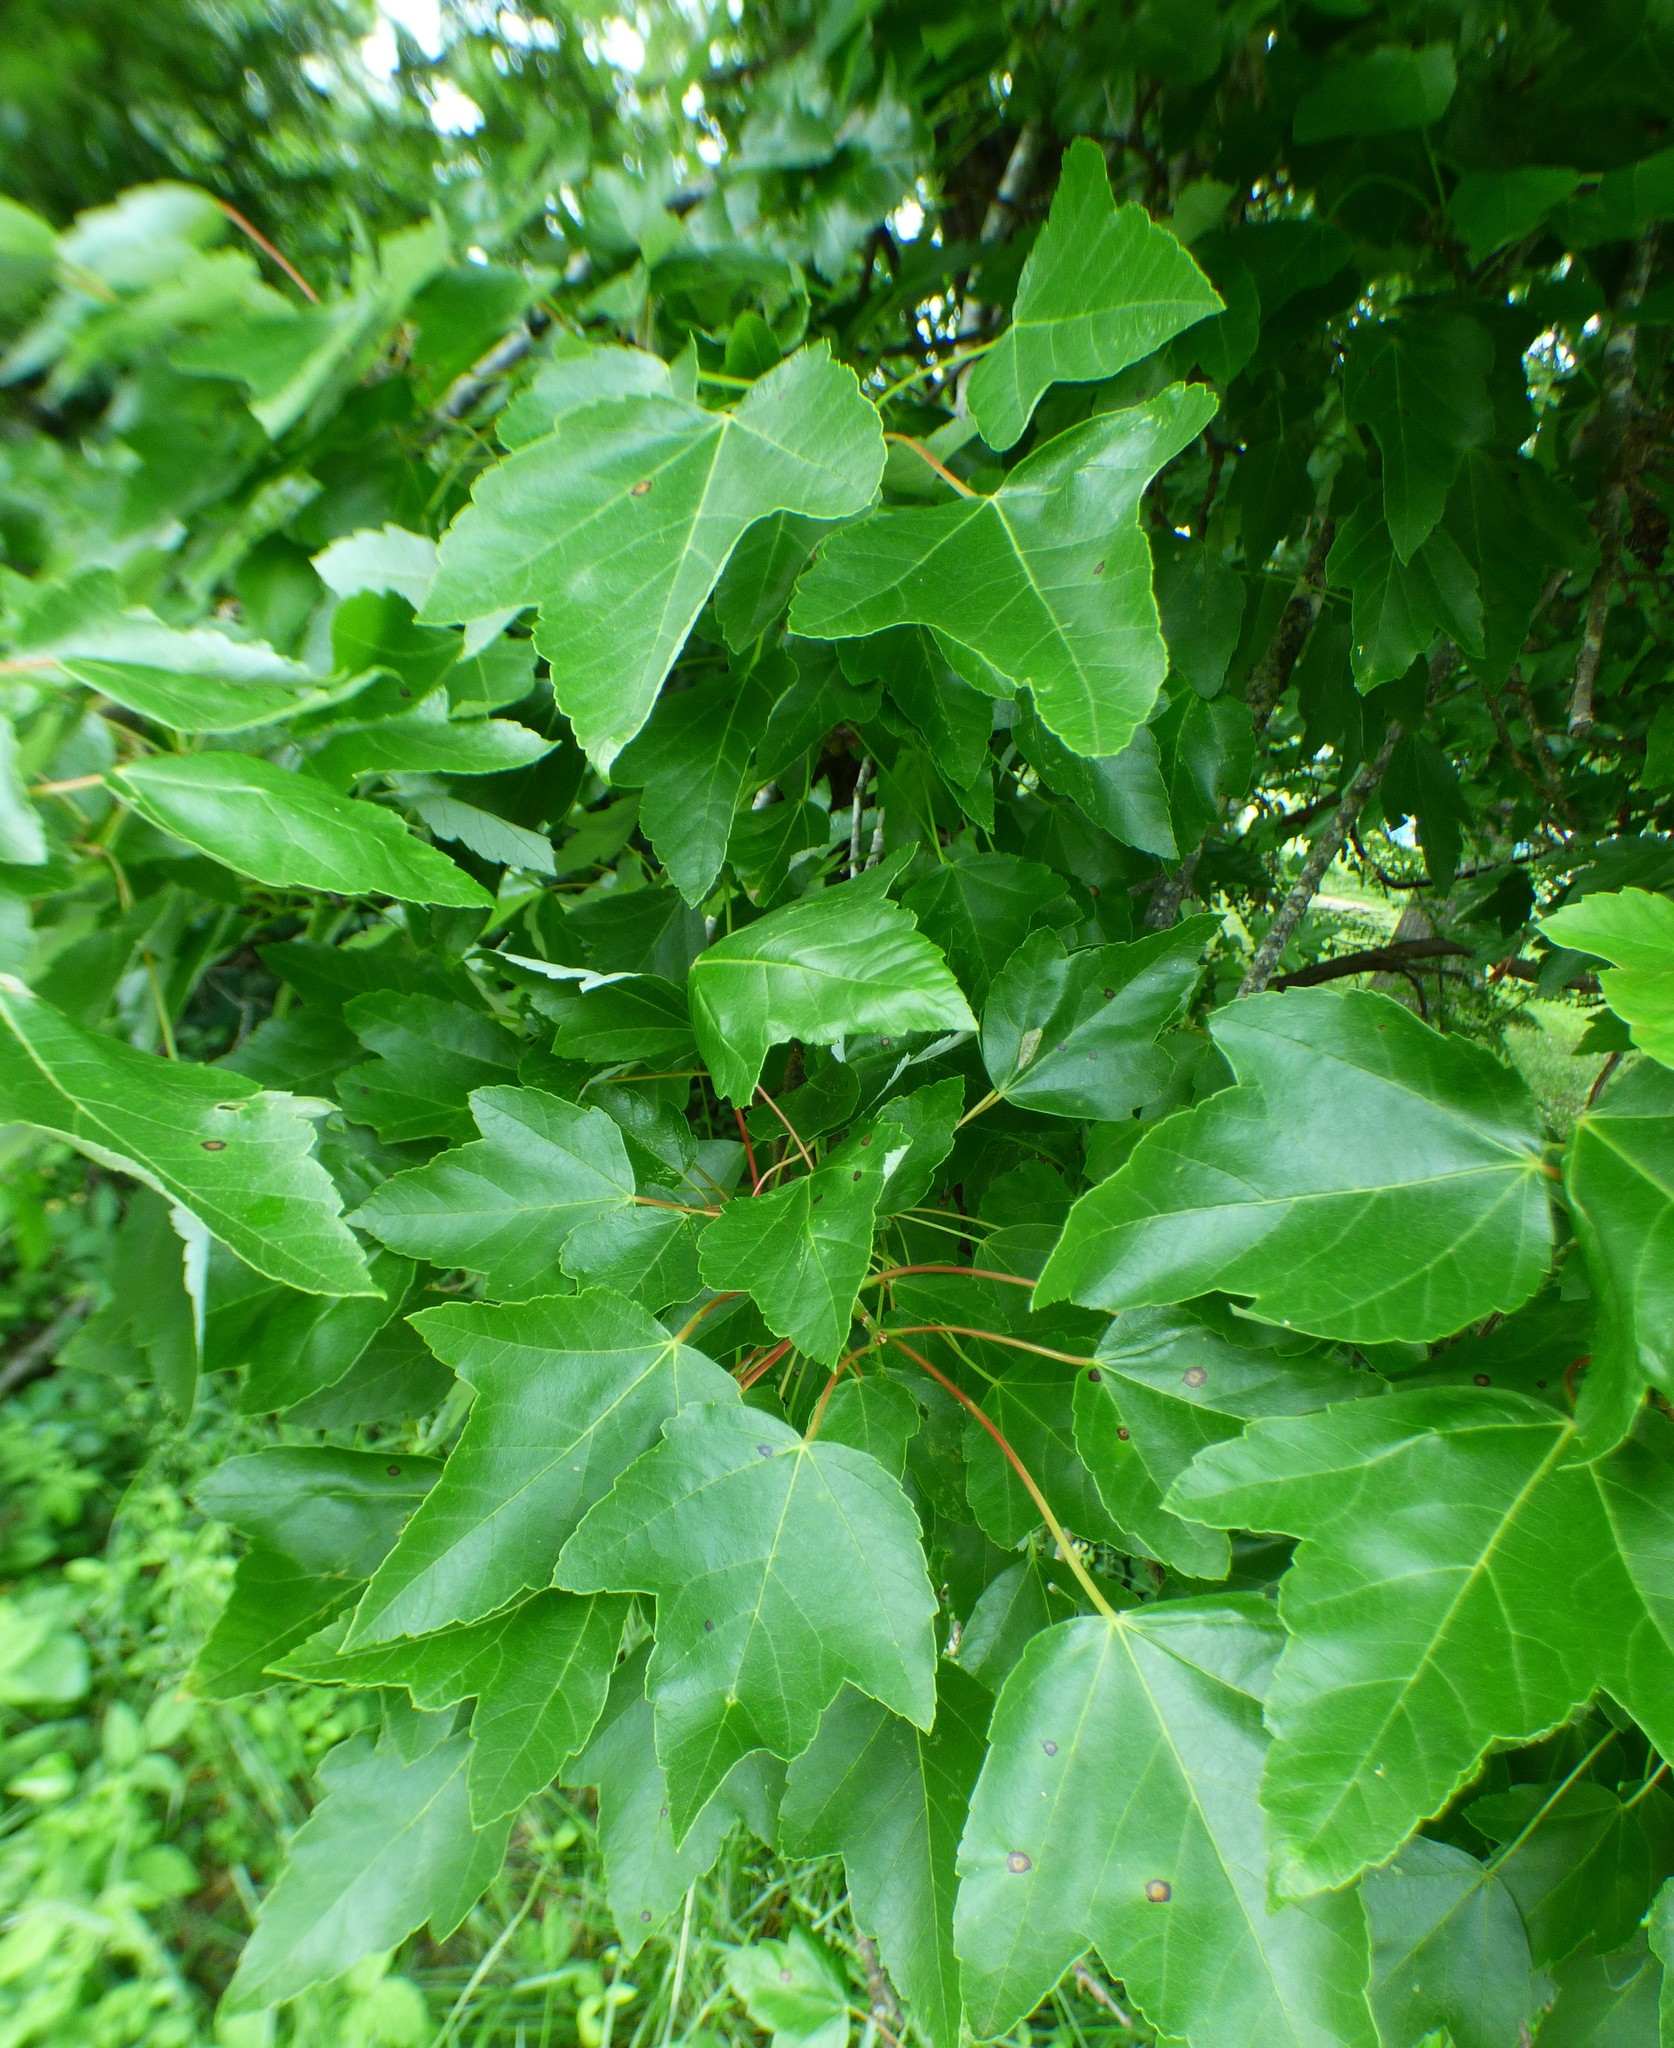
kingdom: Plantae
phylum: Tracheophyta
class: Magnoliopsida
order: Sapindales
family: Sapindaceae
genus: Acer
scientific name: Acer rubrum
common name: Red maple
